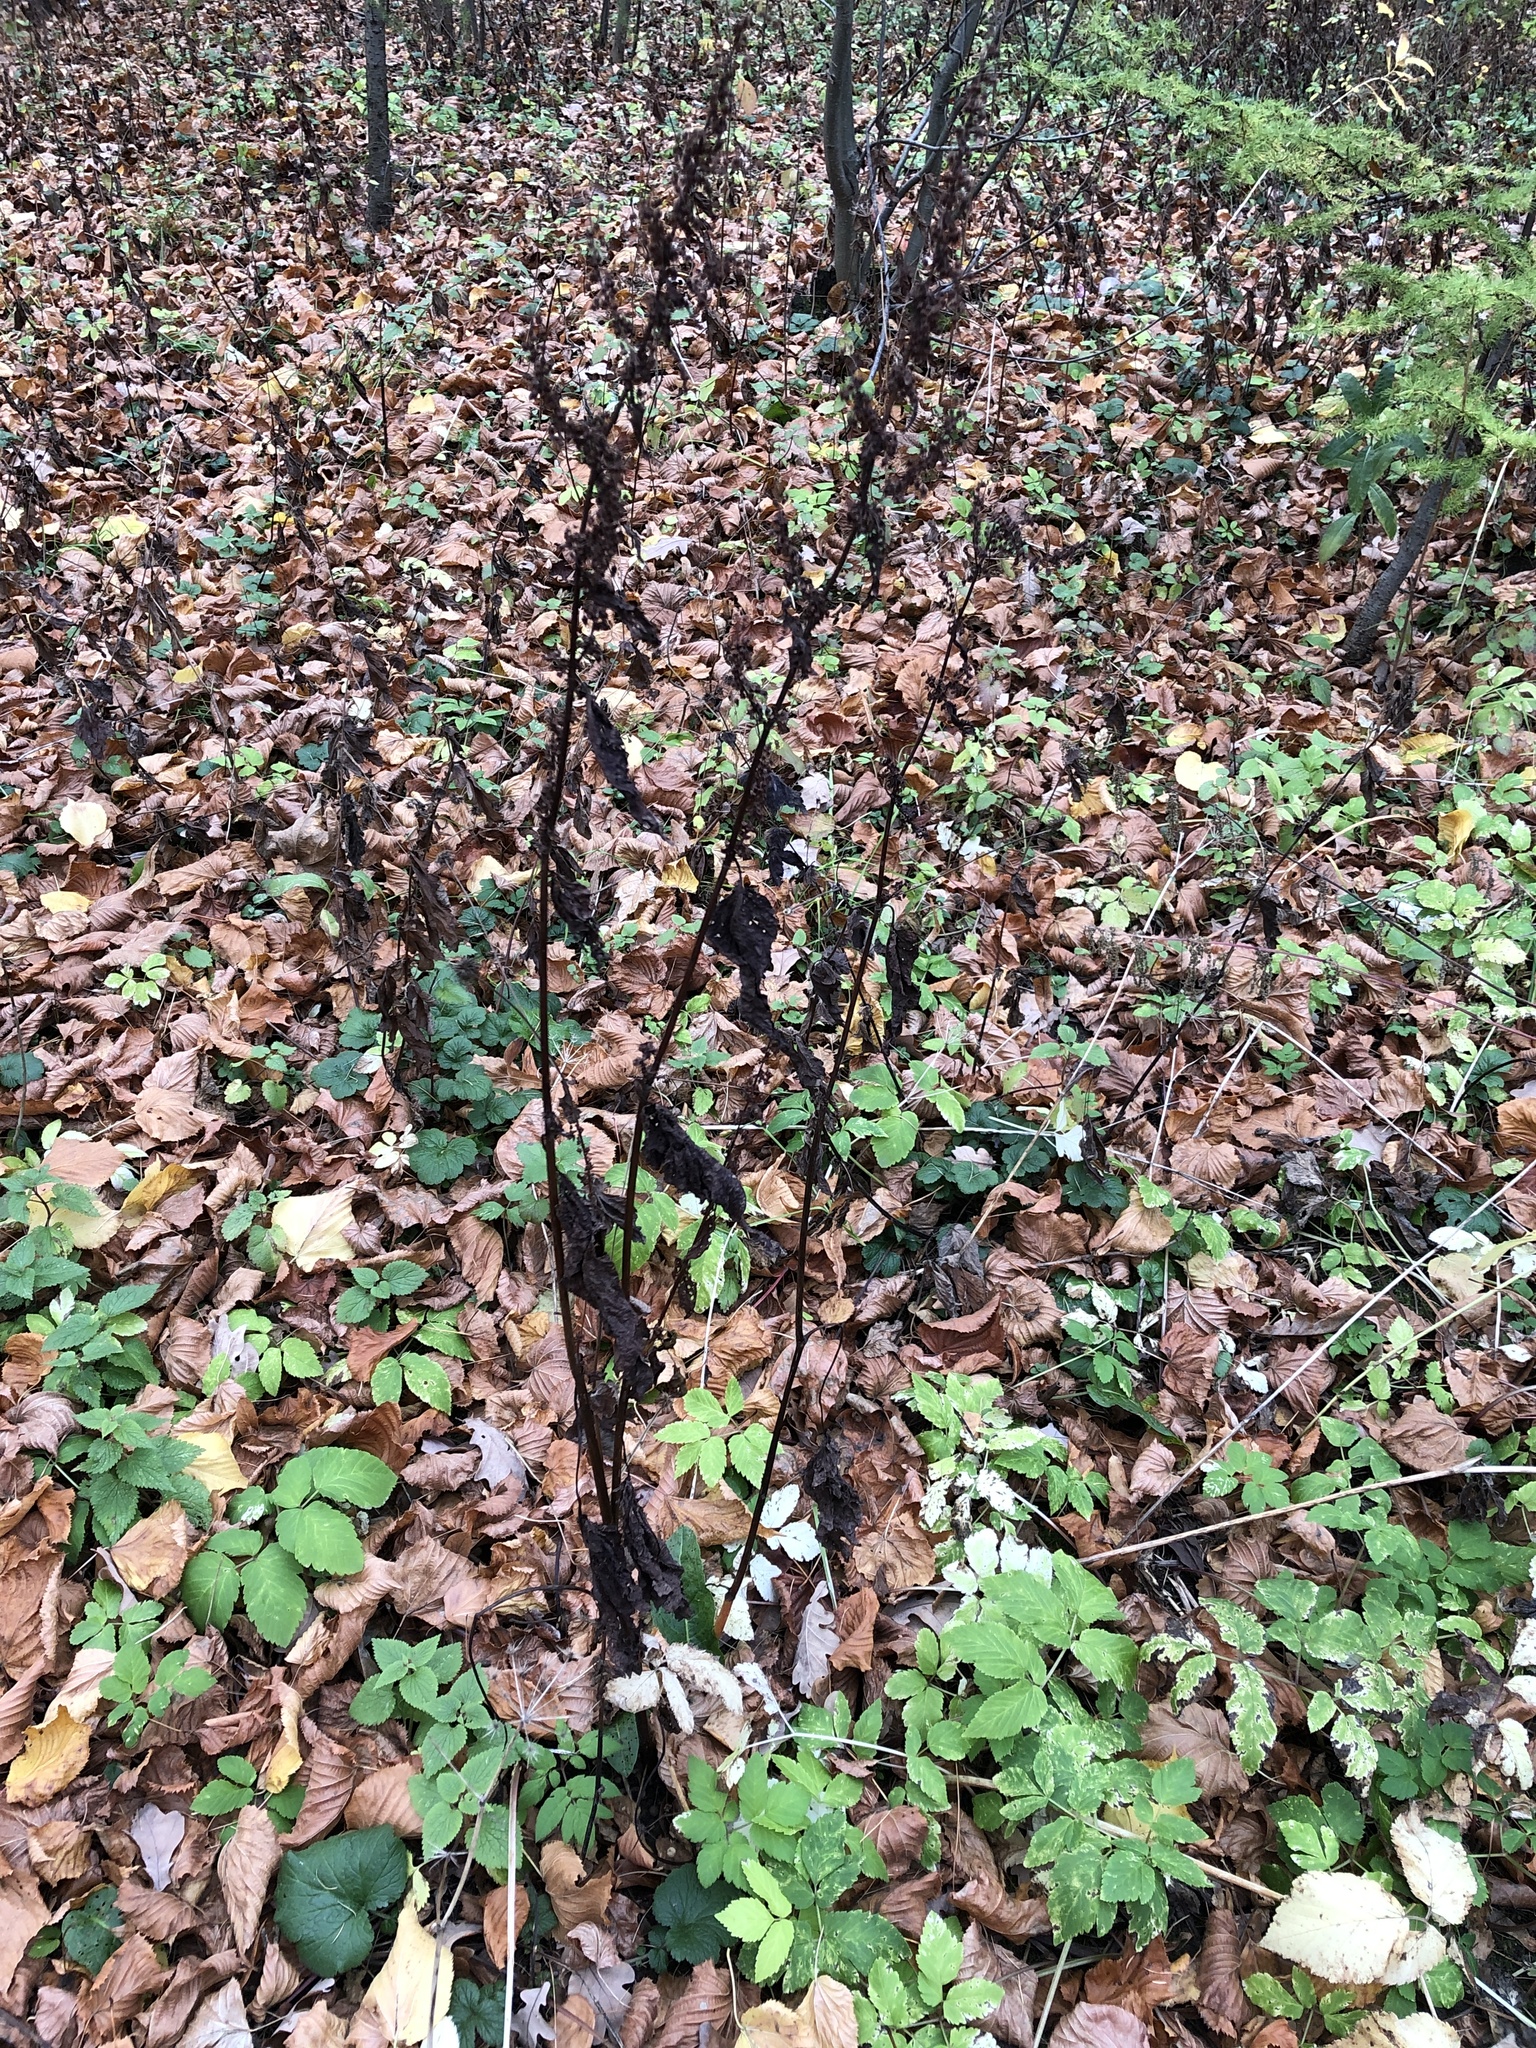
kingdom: Plantae
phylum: Tracheophyta
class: Magnoliopsida
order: Caryophyllales
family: Polygonaceae
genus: Rumex
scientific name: Rumex obtusifolius
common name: Bitter dock
